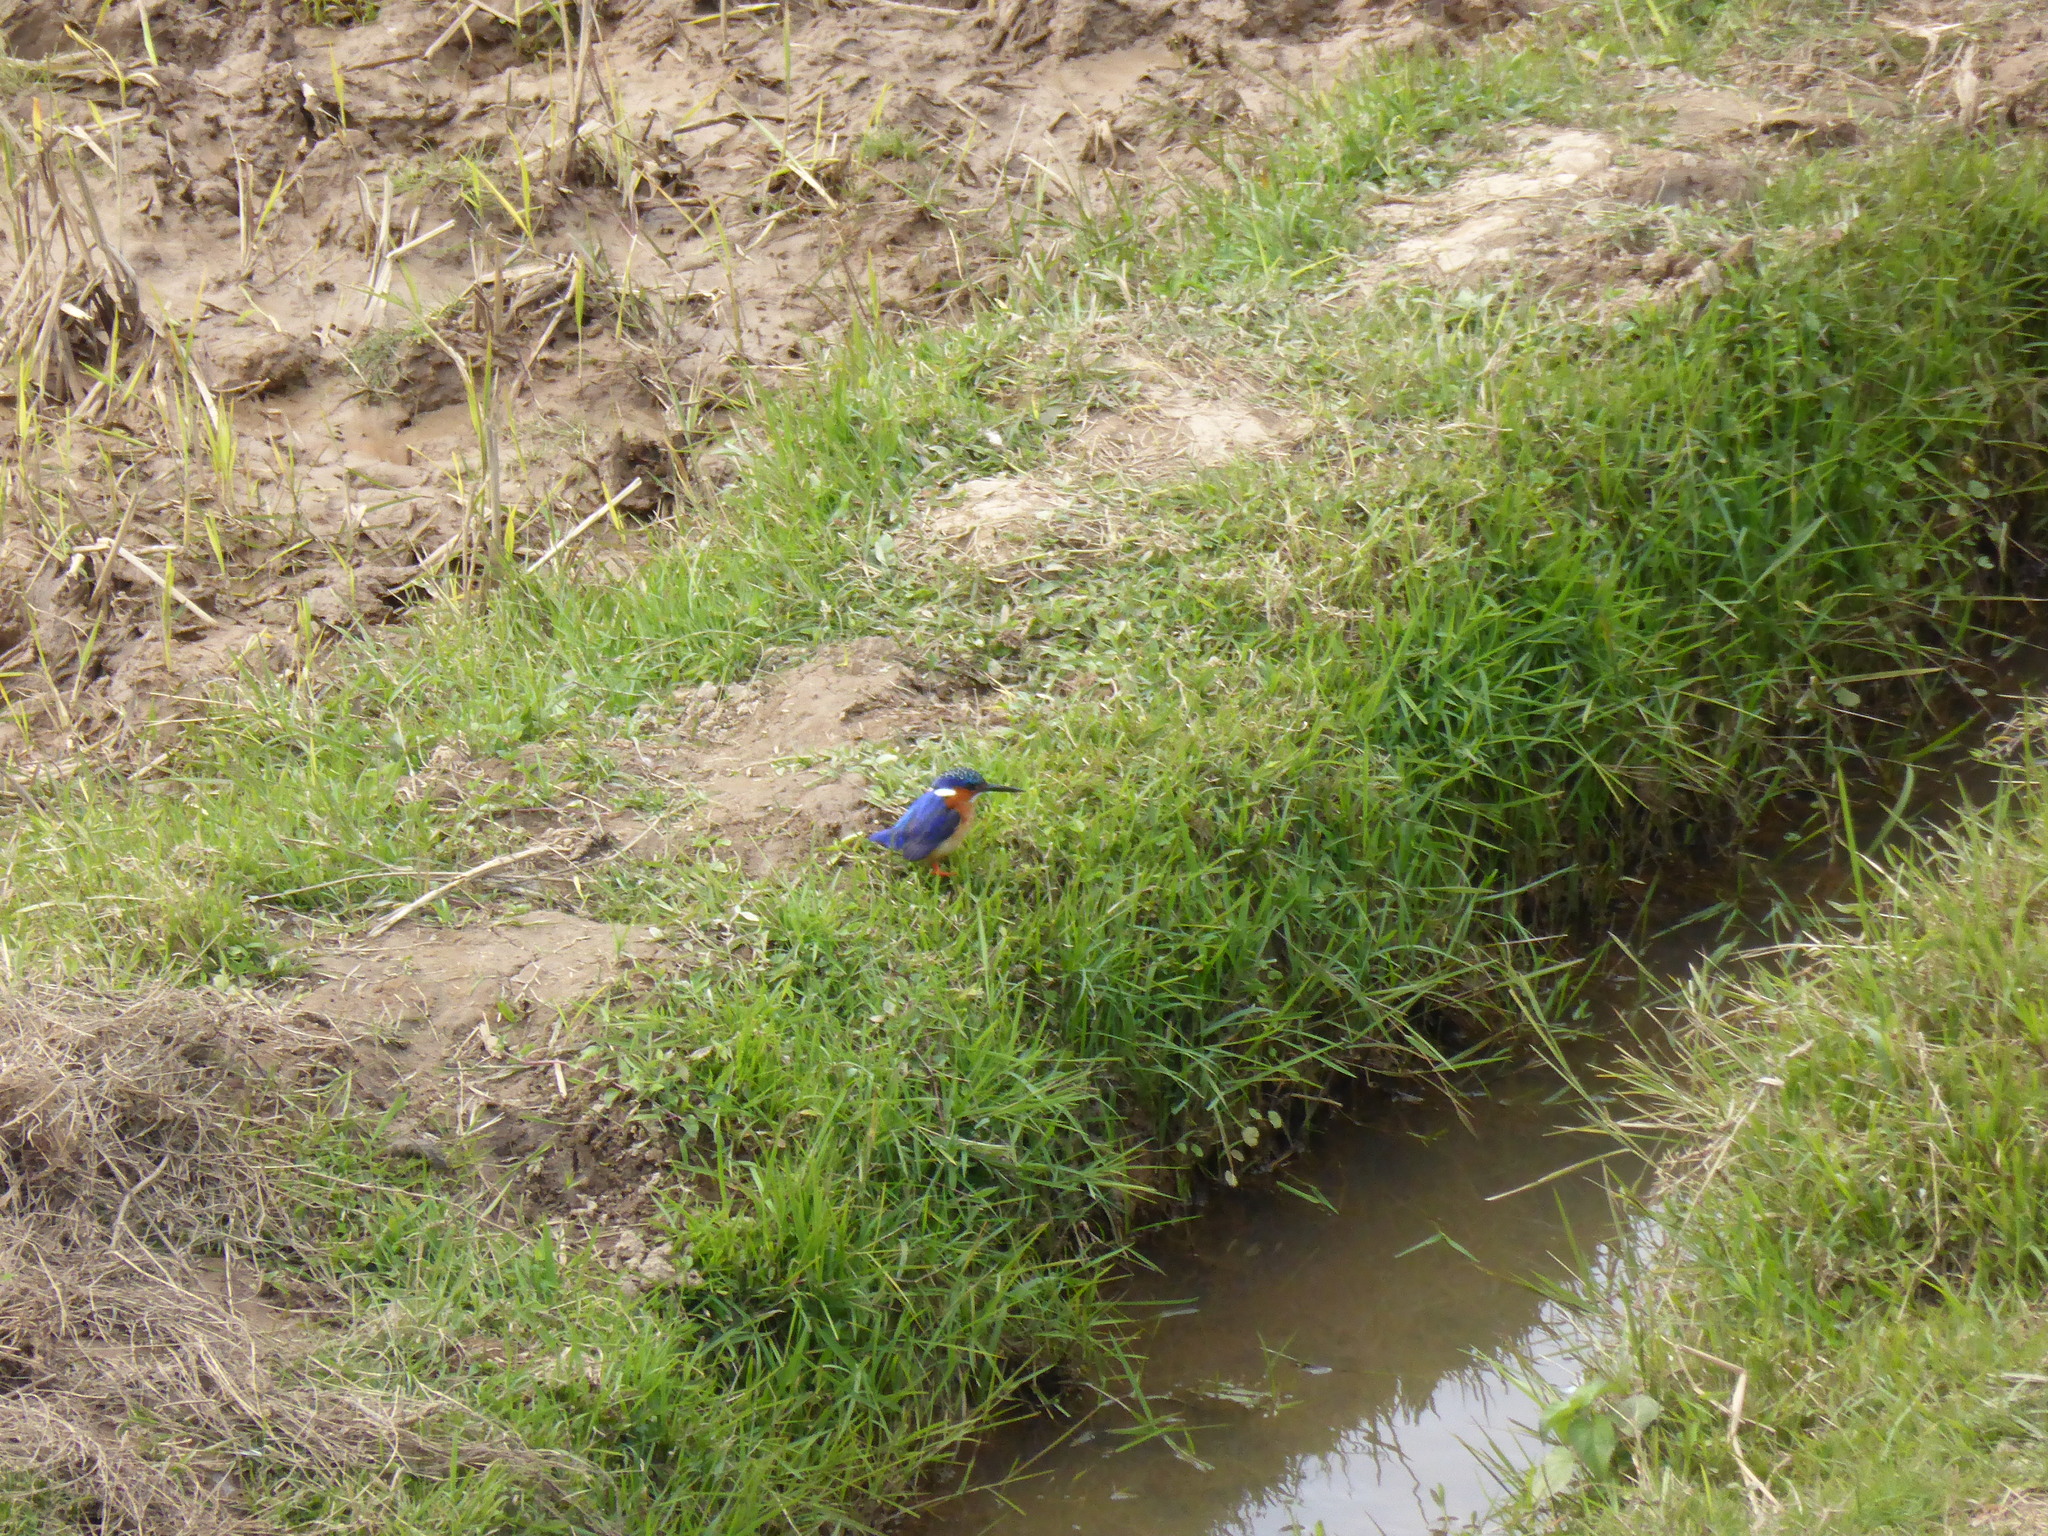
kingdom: Animalia
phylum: Chordata
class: Aves
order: Coraciiformes
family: Alcedinidae
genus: Corythornis
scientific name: Corythornis vintsioides
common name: Malagasy kingfisher
